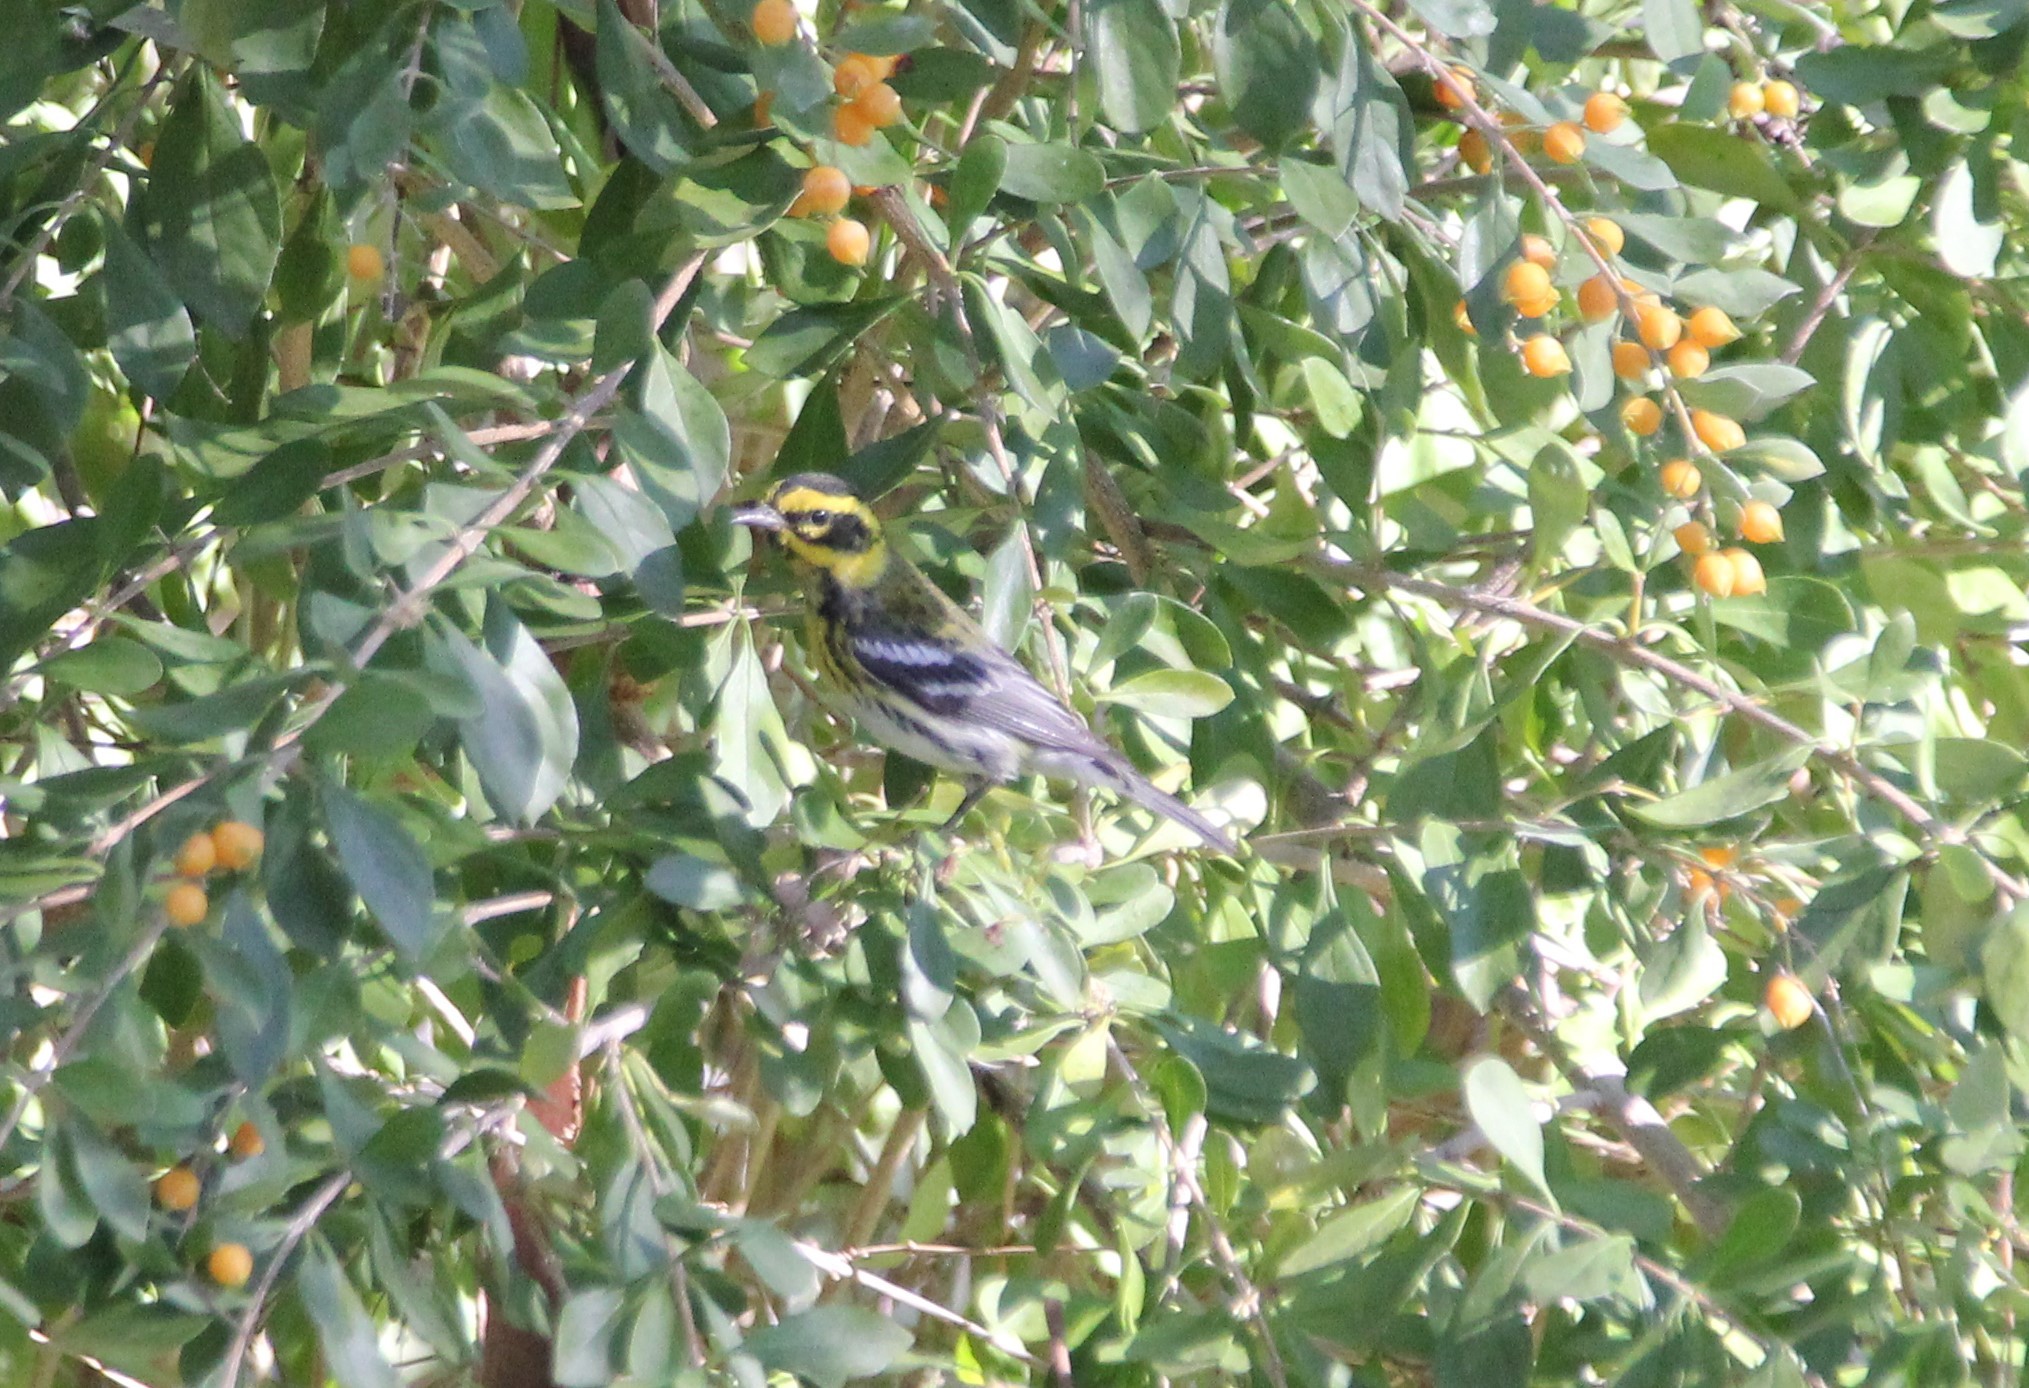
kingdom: Animalia
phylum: Chordata
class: Aves
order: Passeriformes
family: Parulidae
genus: Setophaga
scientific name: Setophaga townsendi
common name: Townsend's warbler
